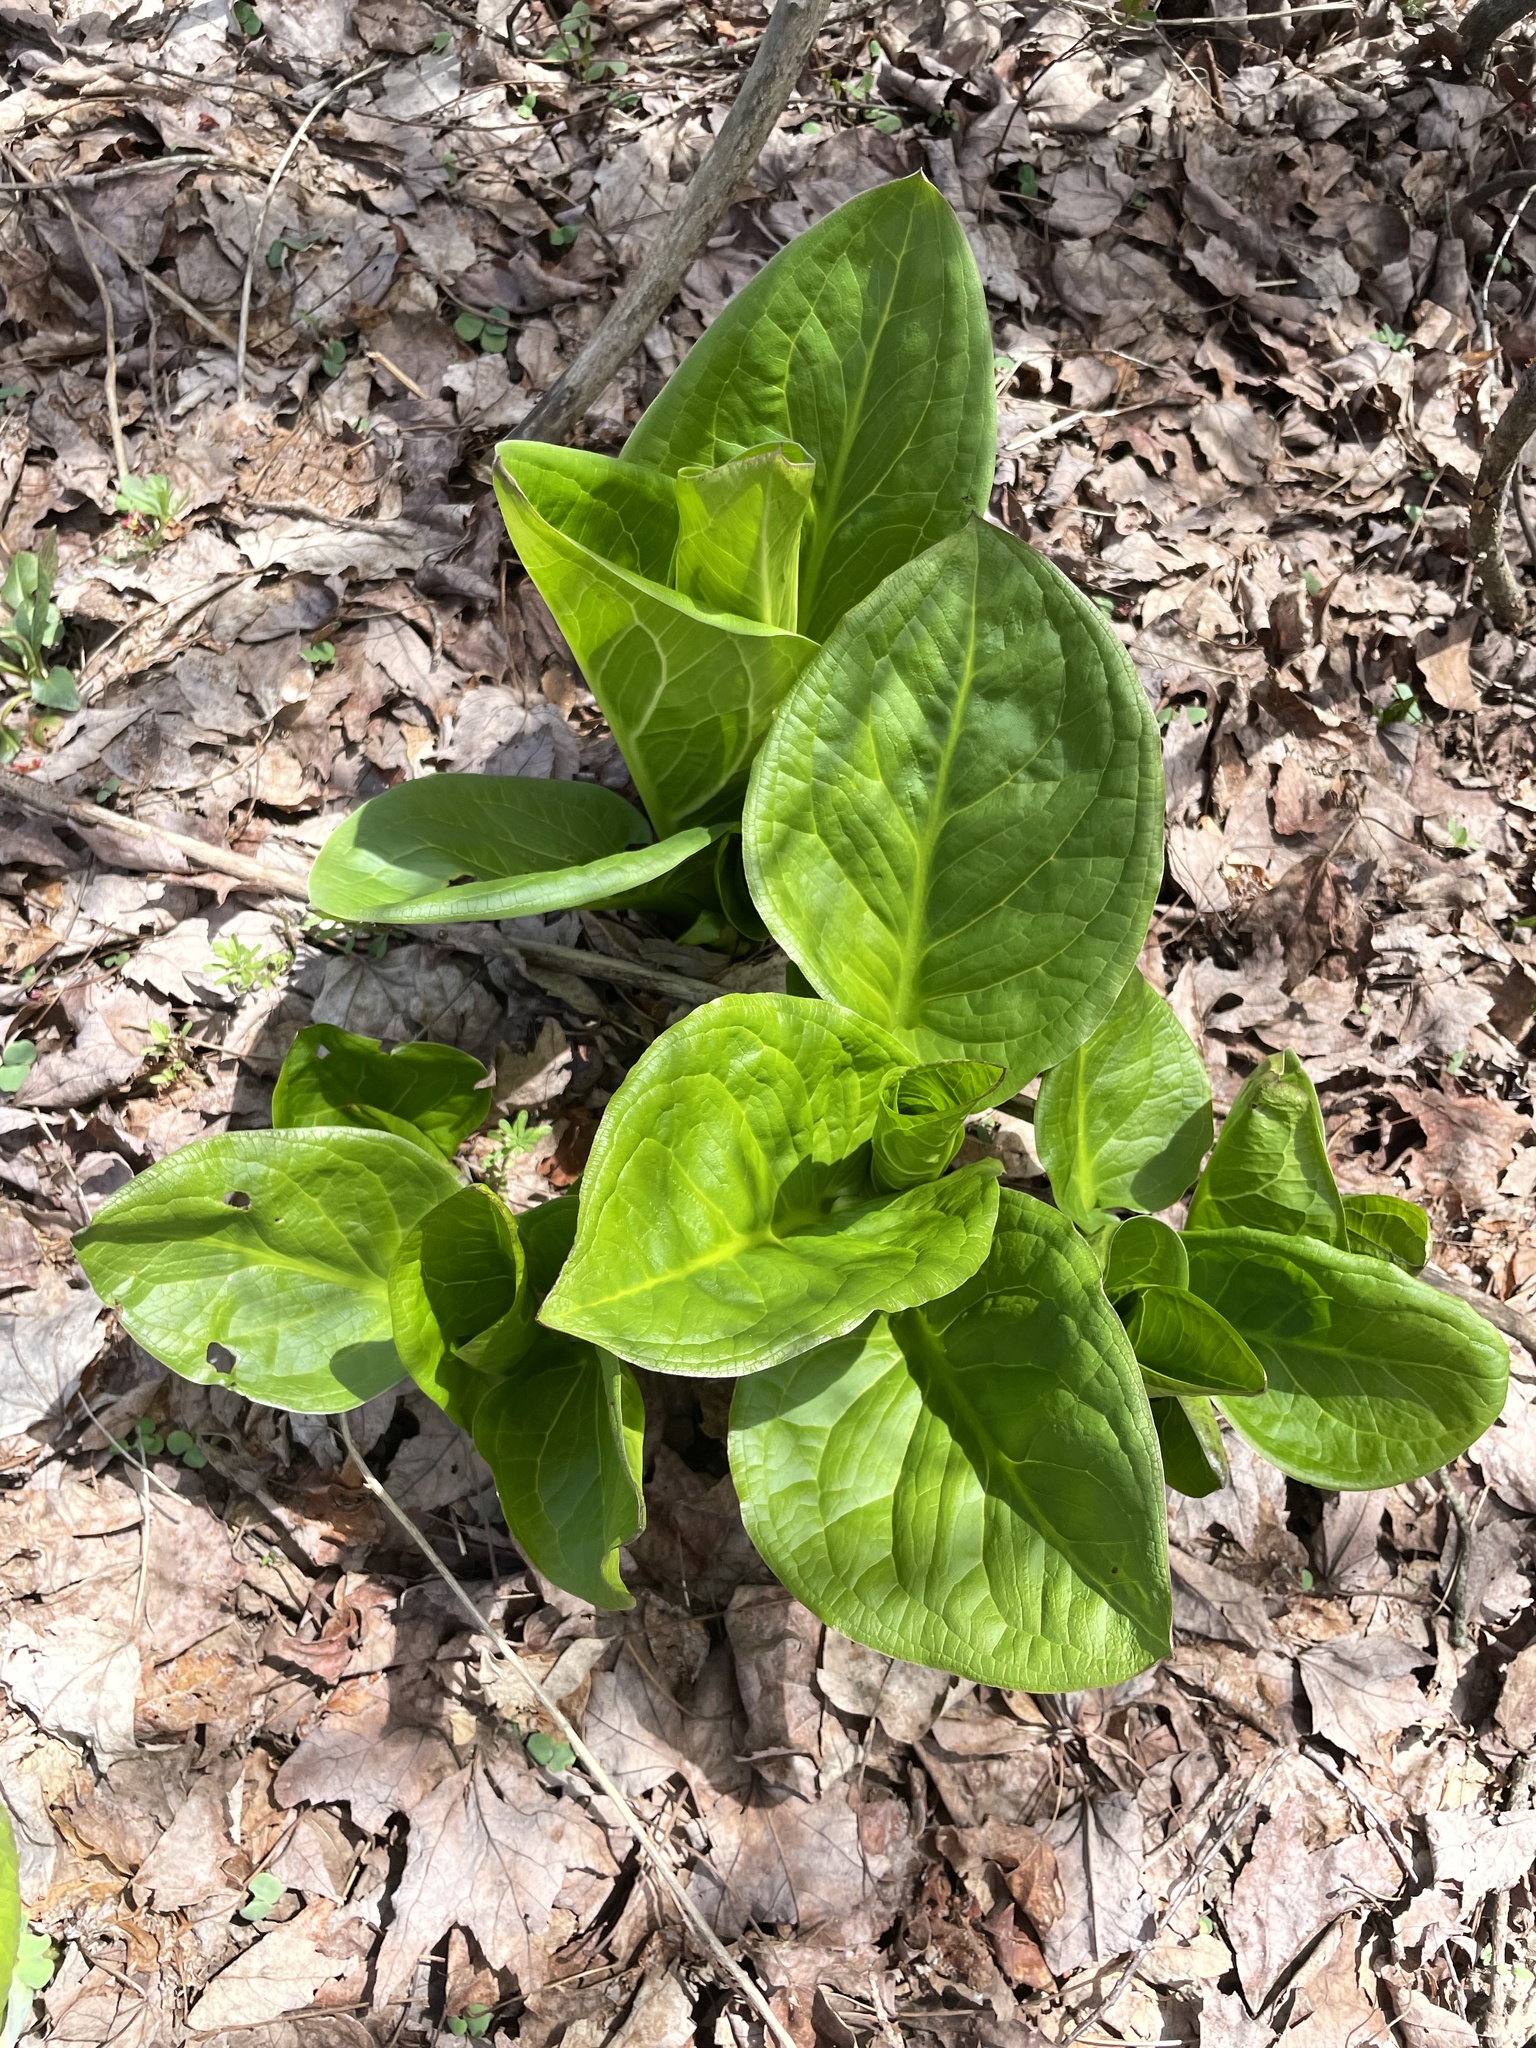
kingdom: Plantae
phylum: Tracheophyta
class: Liliopsida
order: Alismatales
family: Araceae
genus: Symplocarpus
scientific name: Symplocarpus foetidus
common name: Eastern skunk cabbage
